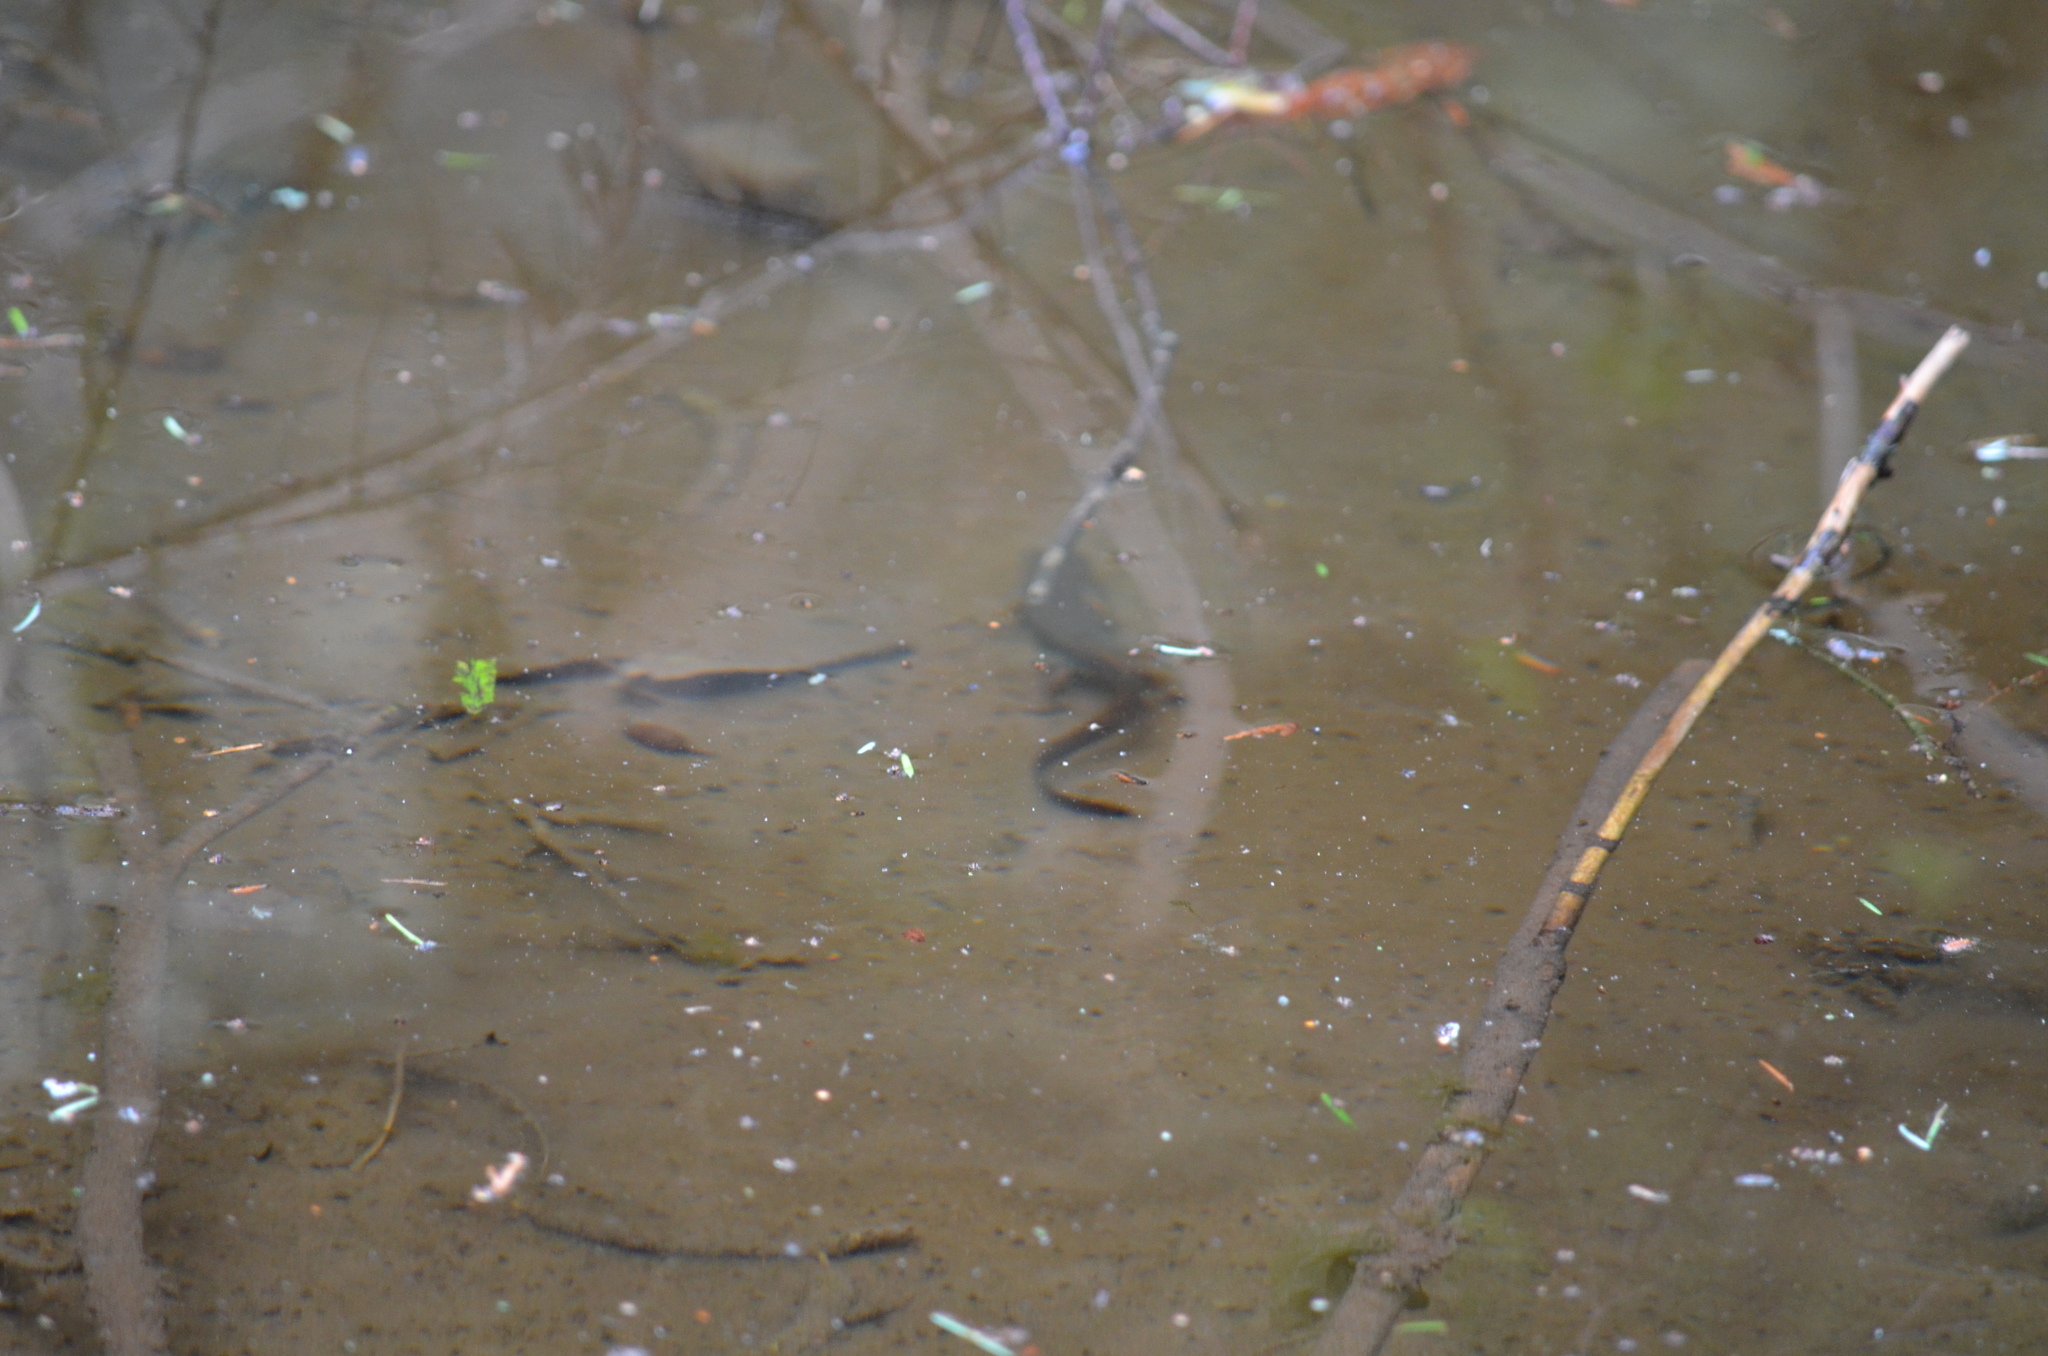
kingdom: Animalia
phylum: Chordata
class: Amphibia
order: Caudata
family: Salamandridae
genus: Taricha
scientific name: Taricha granulosa
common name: Roughskin newt
